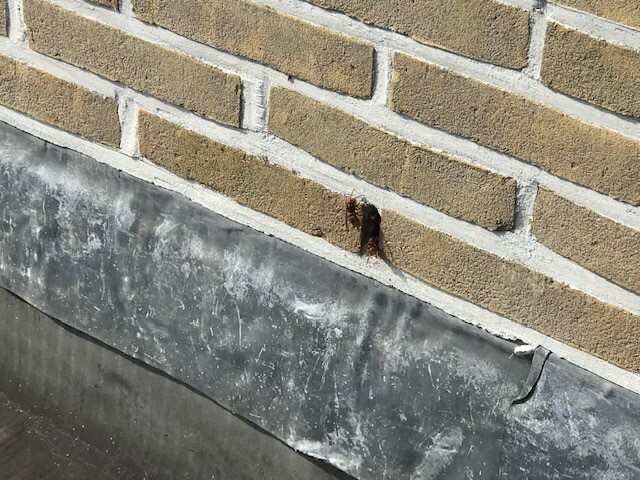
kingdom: Animalia
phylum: Arthropoda
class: Insecta
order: Hymenoptera
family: Vespidae
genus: Vespa
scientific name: Vespa crabro
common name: Hornet
